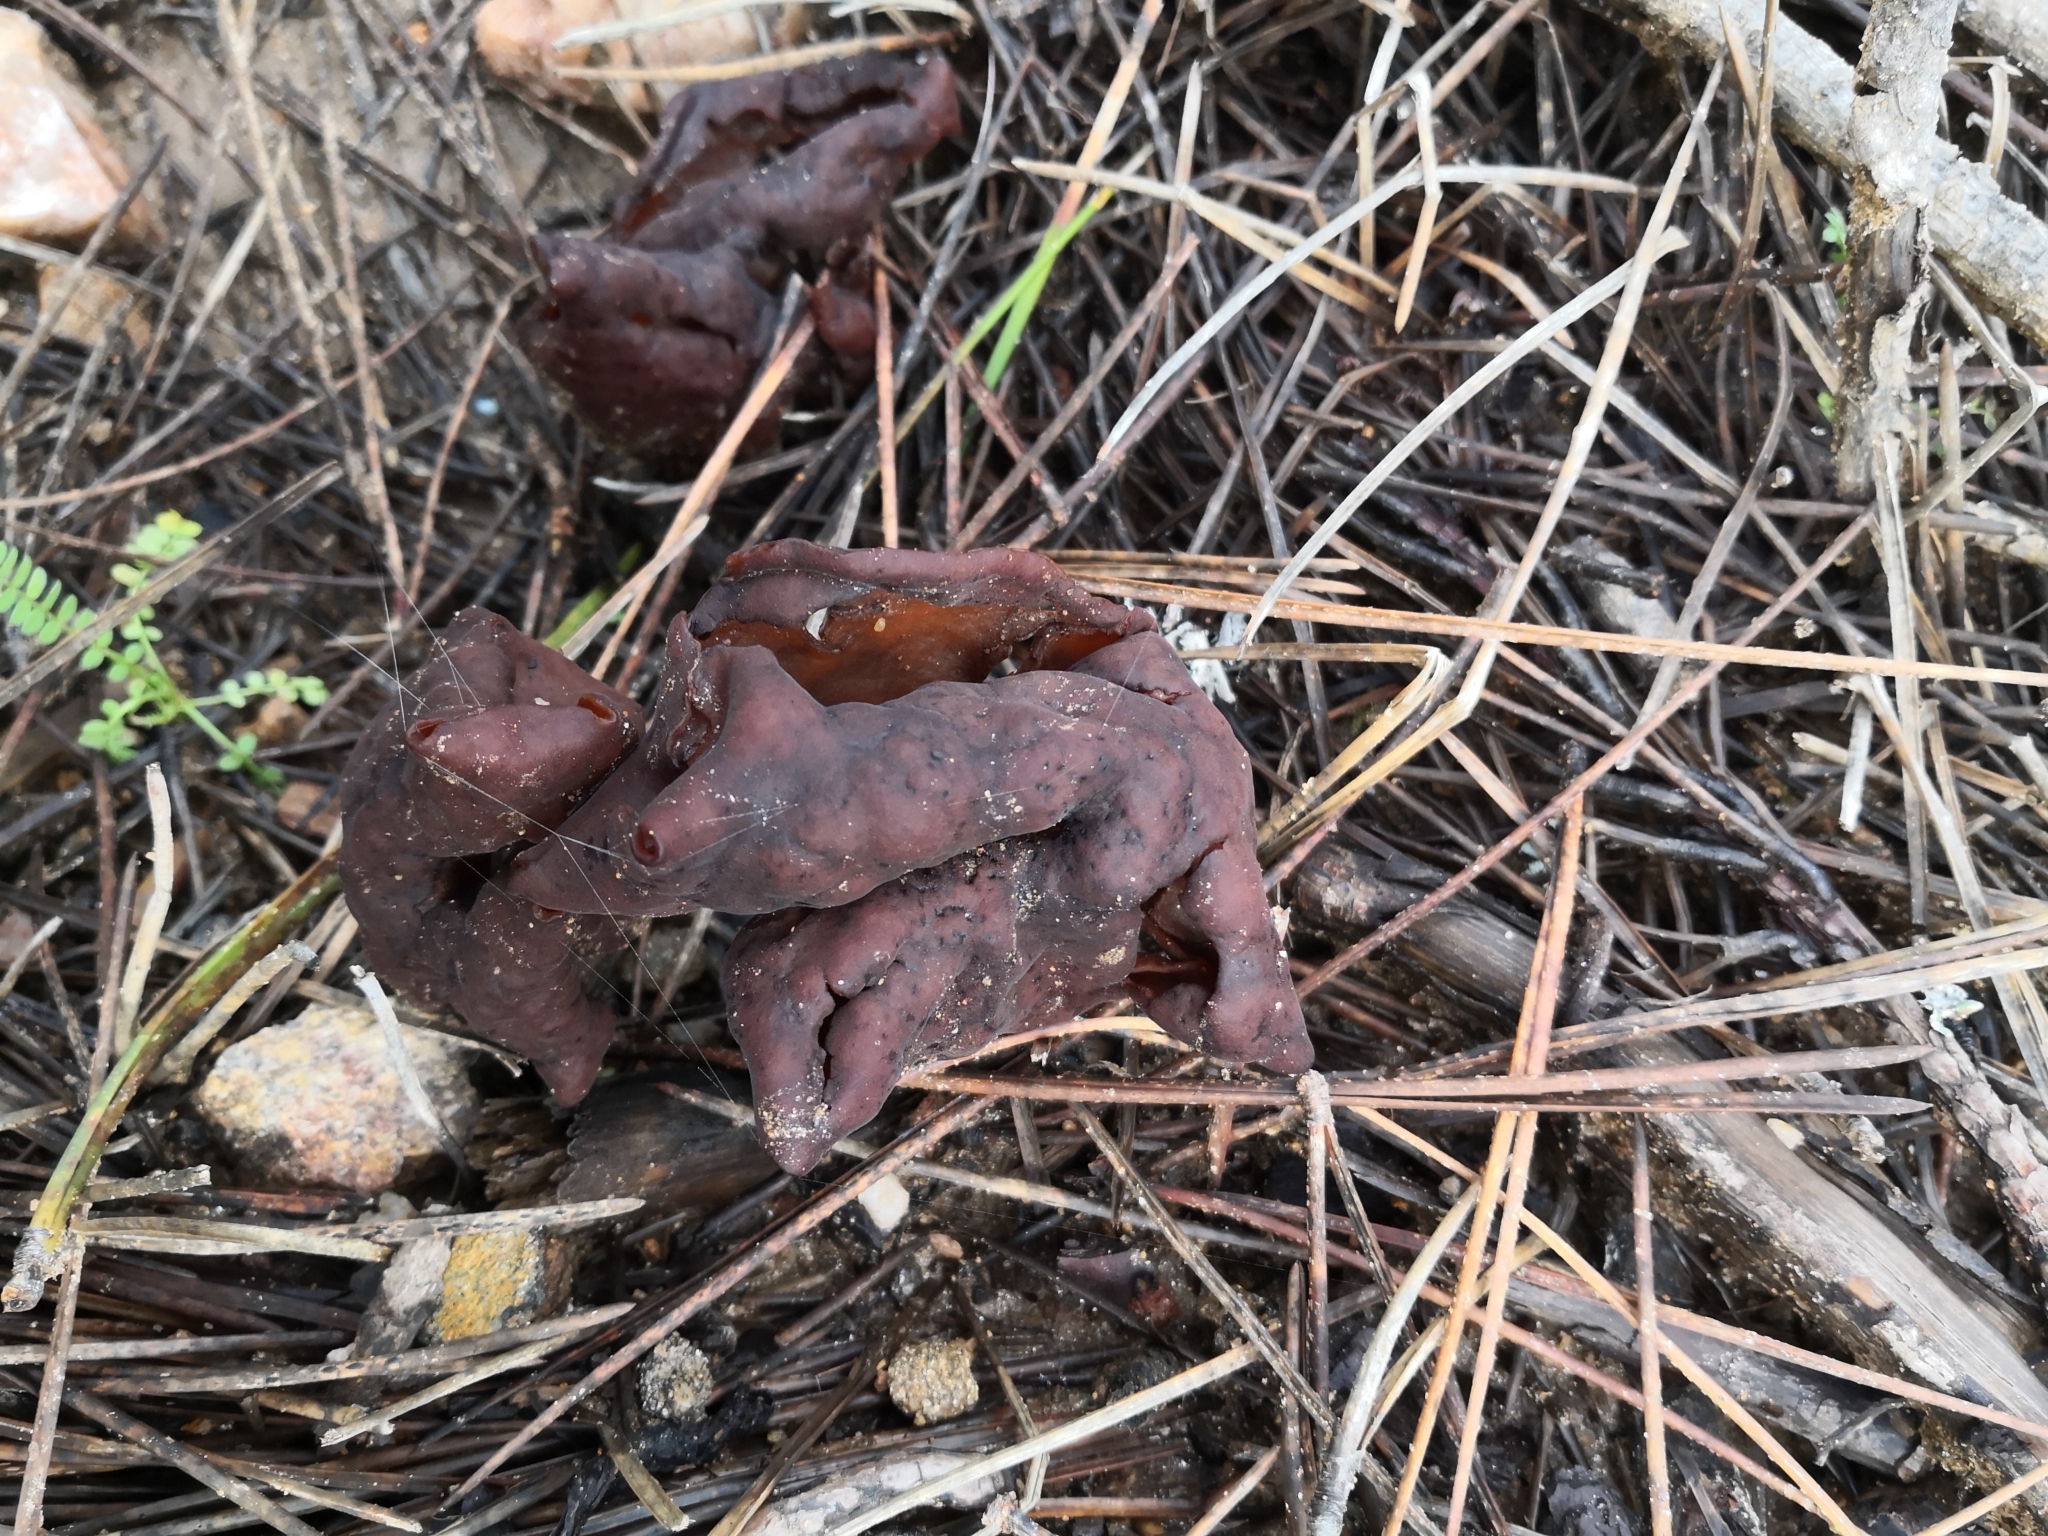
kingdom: Fungi
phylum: Ascomycota
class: Pezizomycetes
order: Pezizales
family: Discinaceae
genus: Gyromitra
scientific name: Gyromitra infula
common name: Pouched false morel
